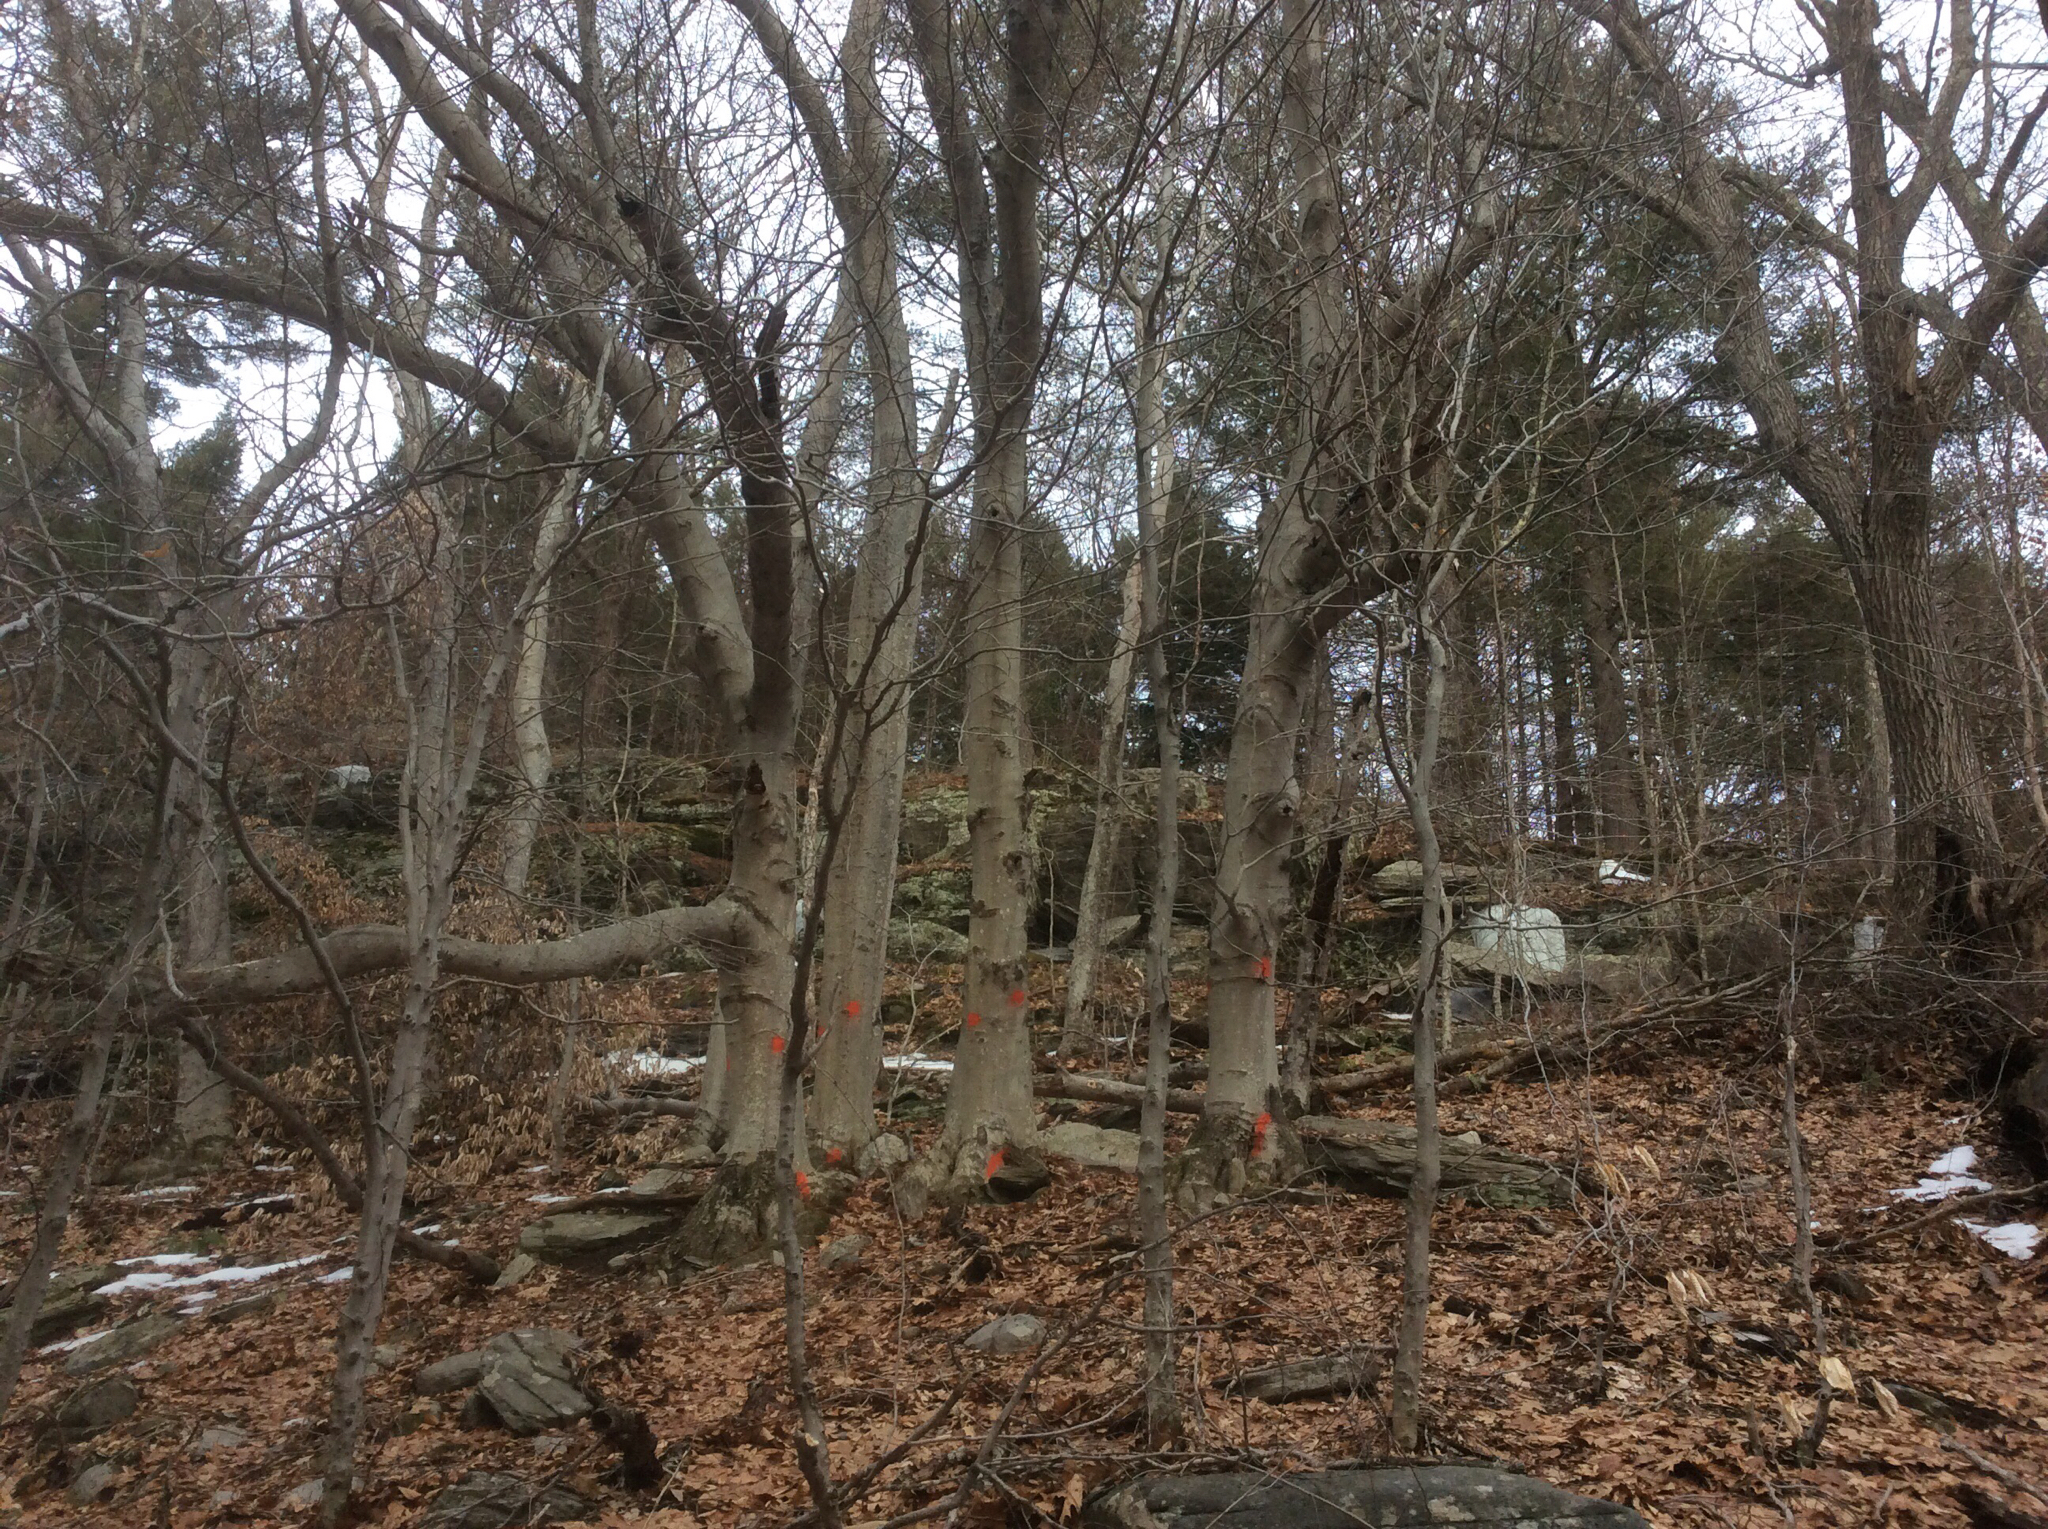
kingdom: Plantae
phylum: Tracheophyta
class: Magnoliopsida
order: Fagales
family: Fagaceae
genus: Fagus
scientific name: Fagus grandifolia
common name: American beech
